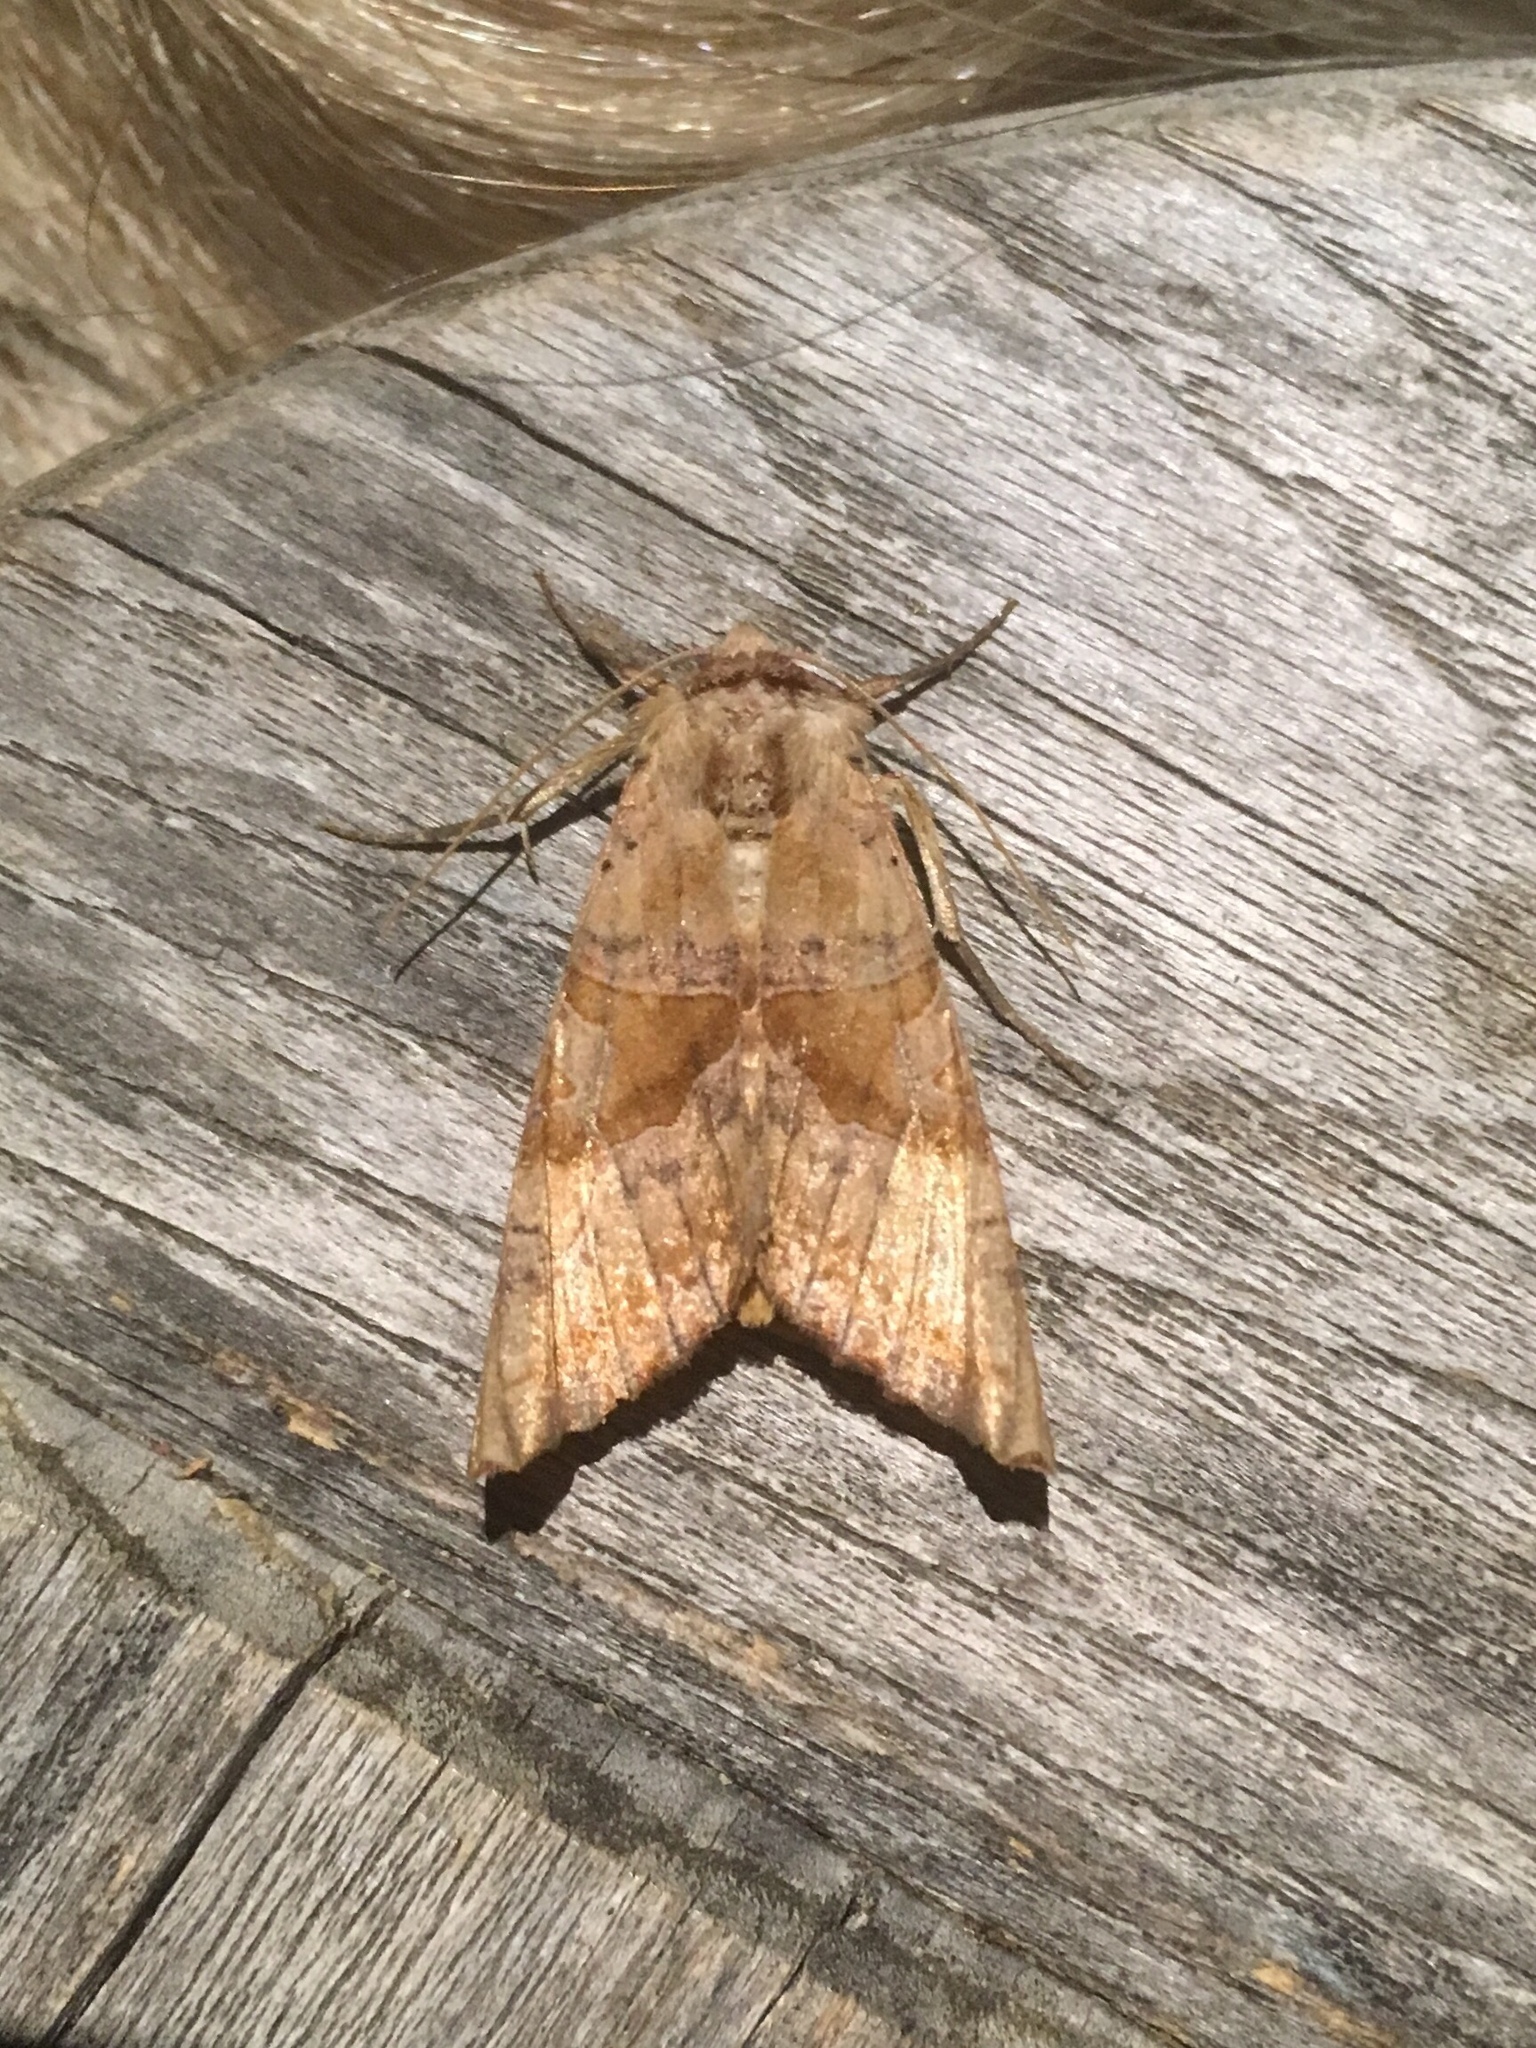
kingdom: Animalia
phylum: Arthropoda
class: Insecta
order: Lepidoptera
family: Noctuidae
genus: Phlogophora
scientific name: Phlogophora periculosa
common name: Brown angle shades
